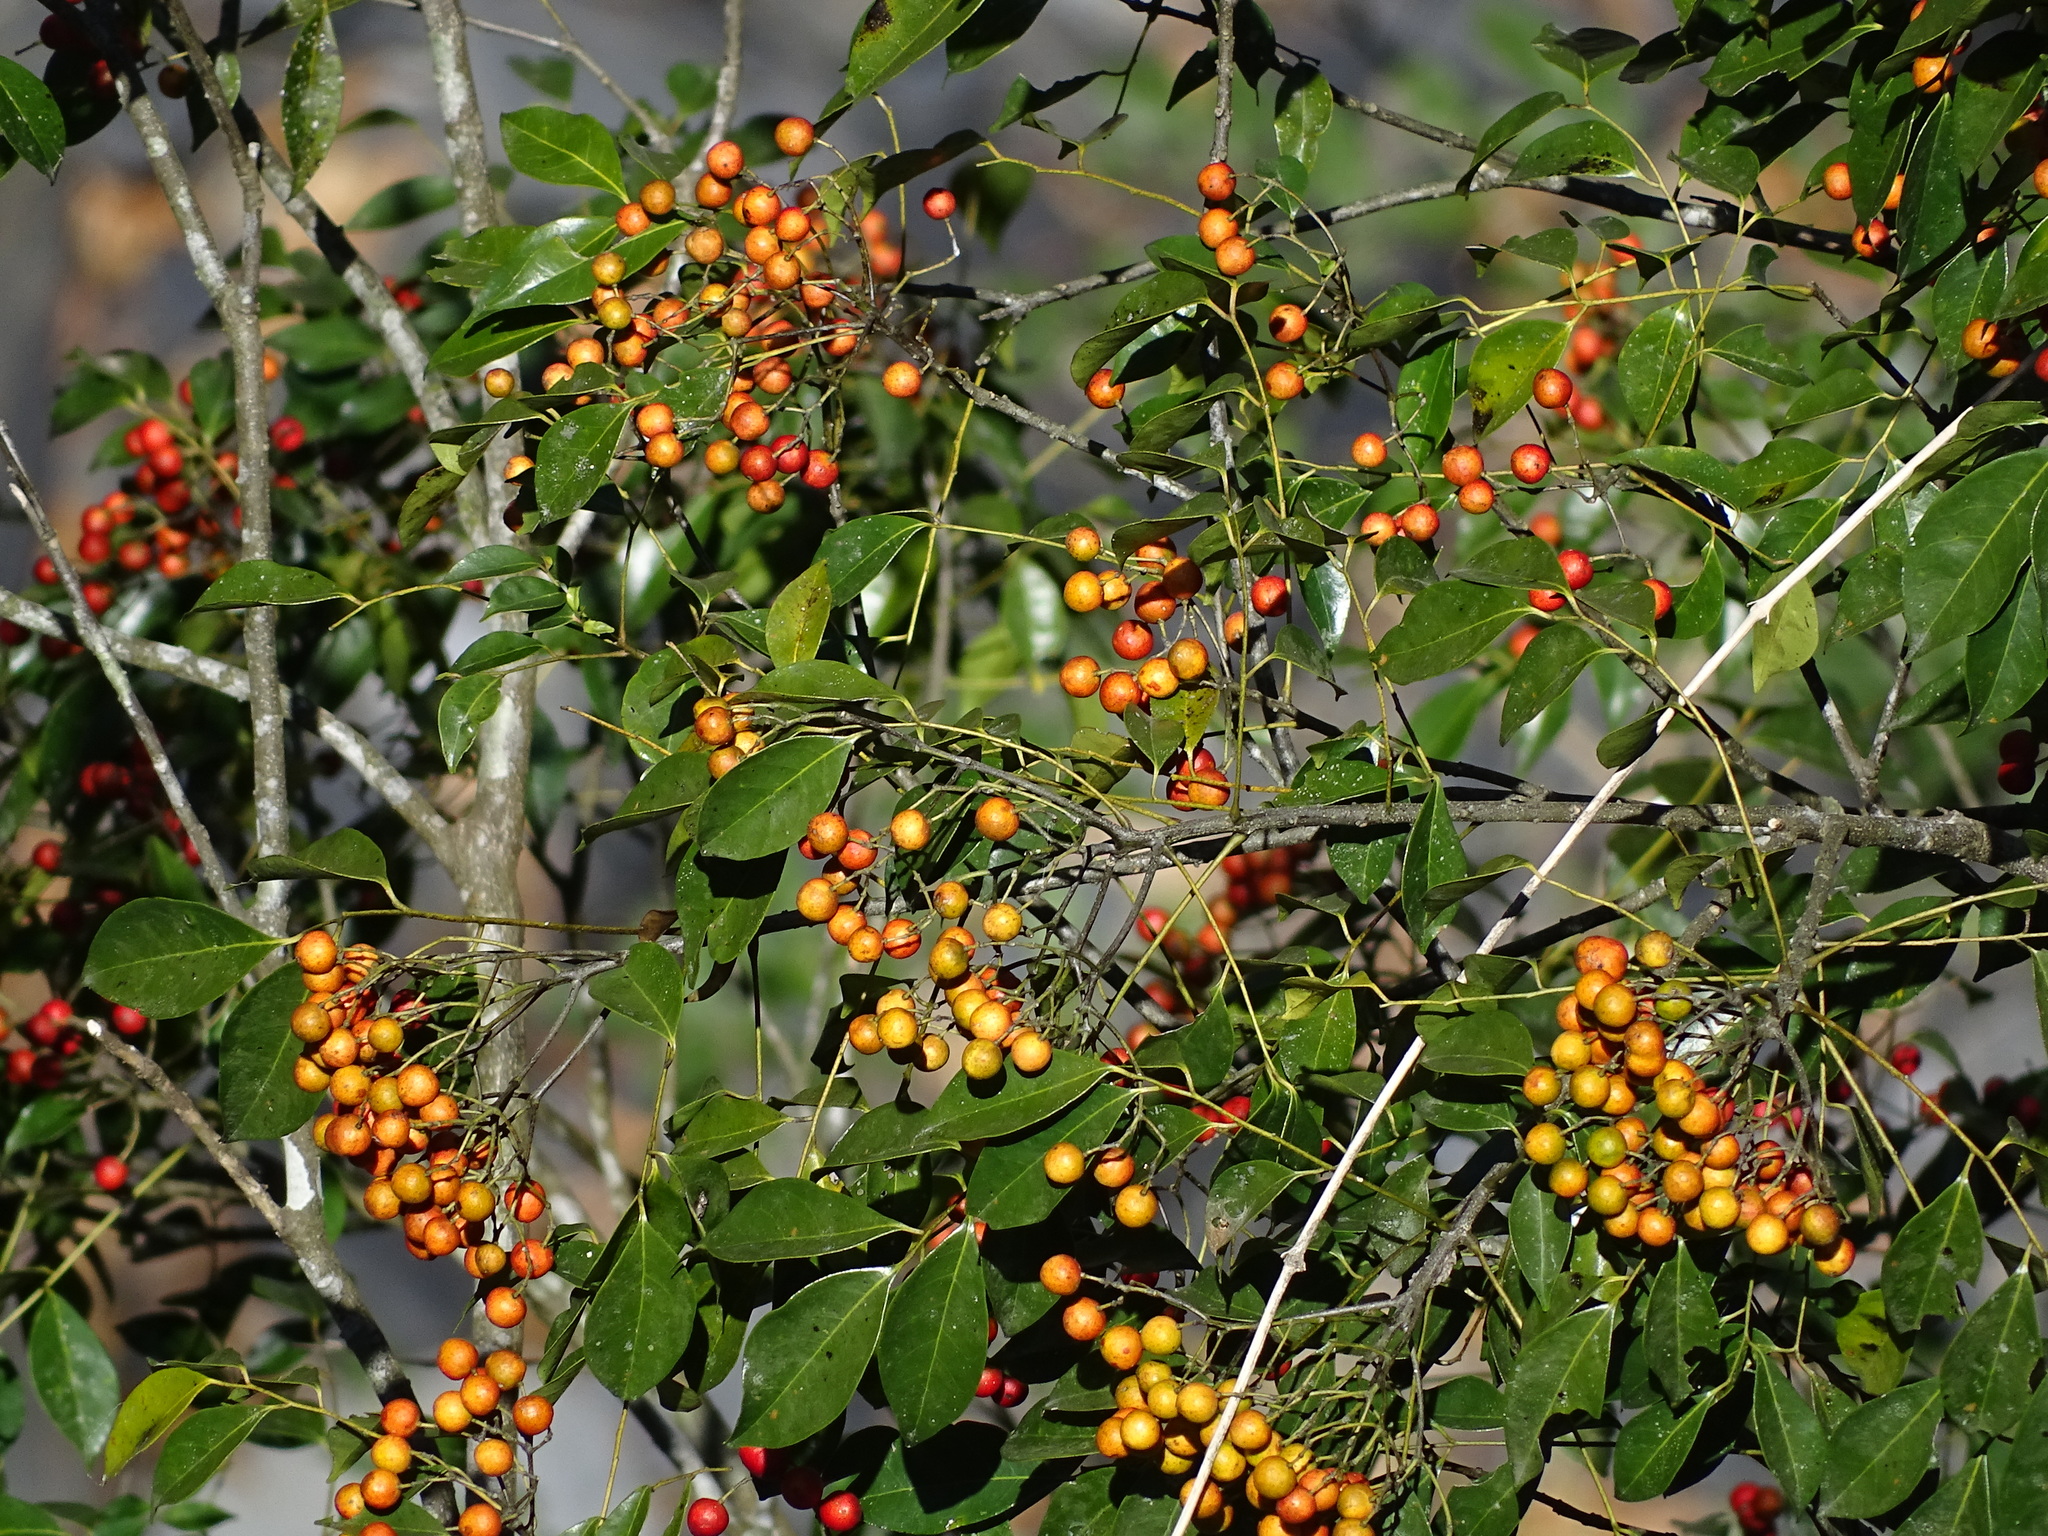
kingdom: Plantae
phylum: Tracheophyta
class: Magnoliopsida
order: Sapindales
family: Rutaceae
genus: Murraya
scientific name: Murraya euchrestifolia
